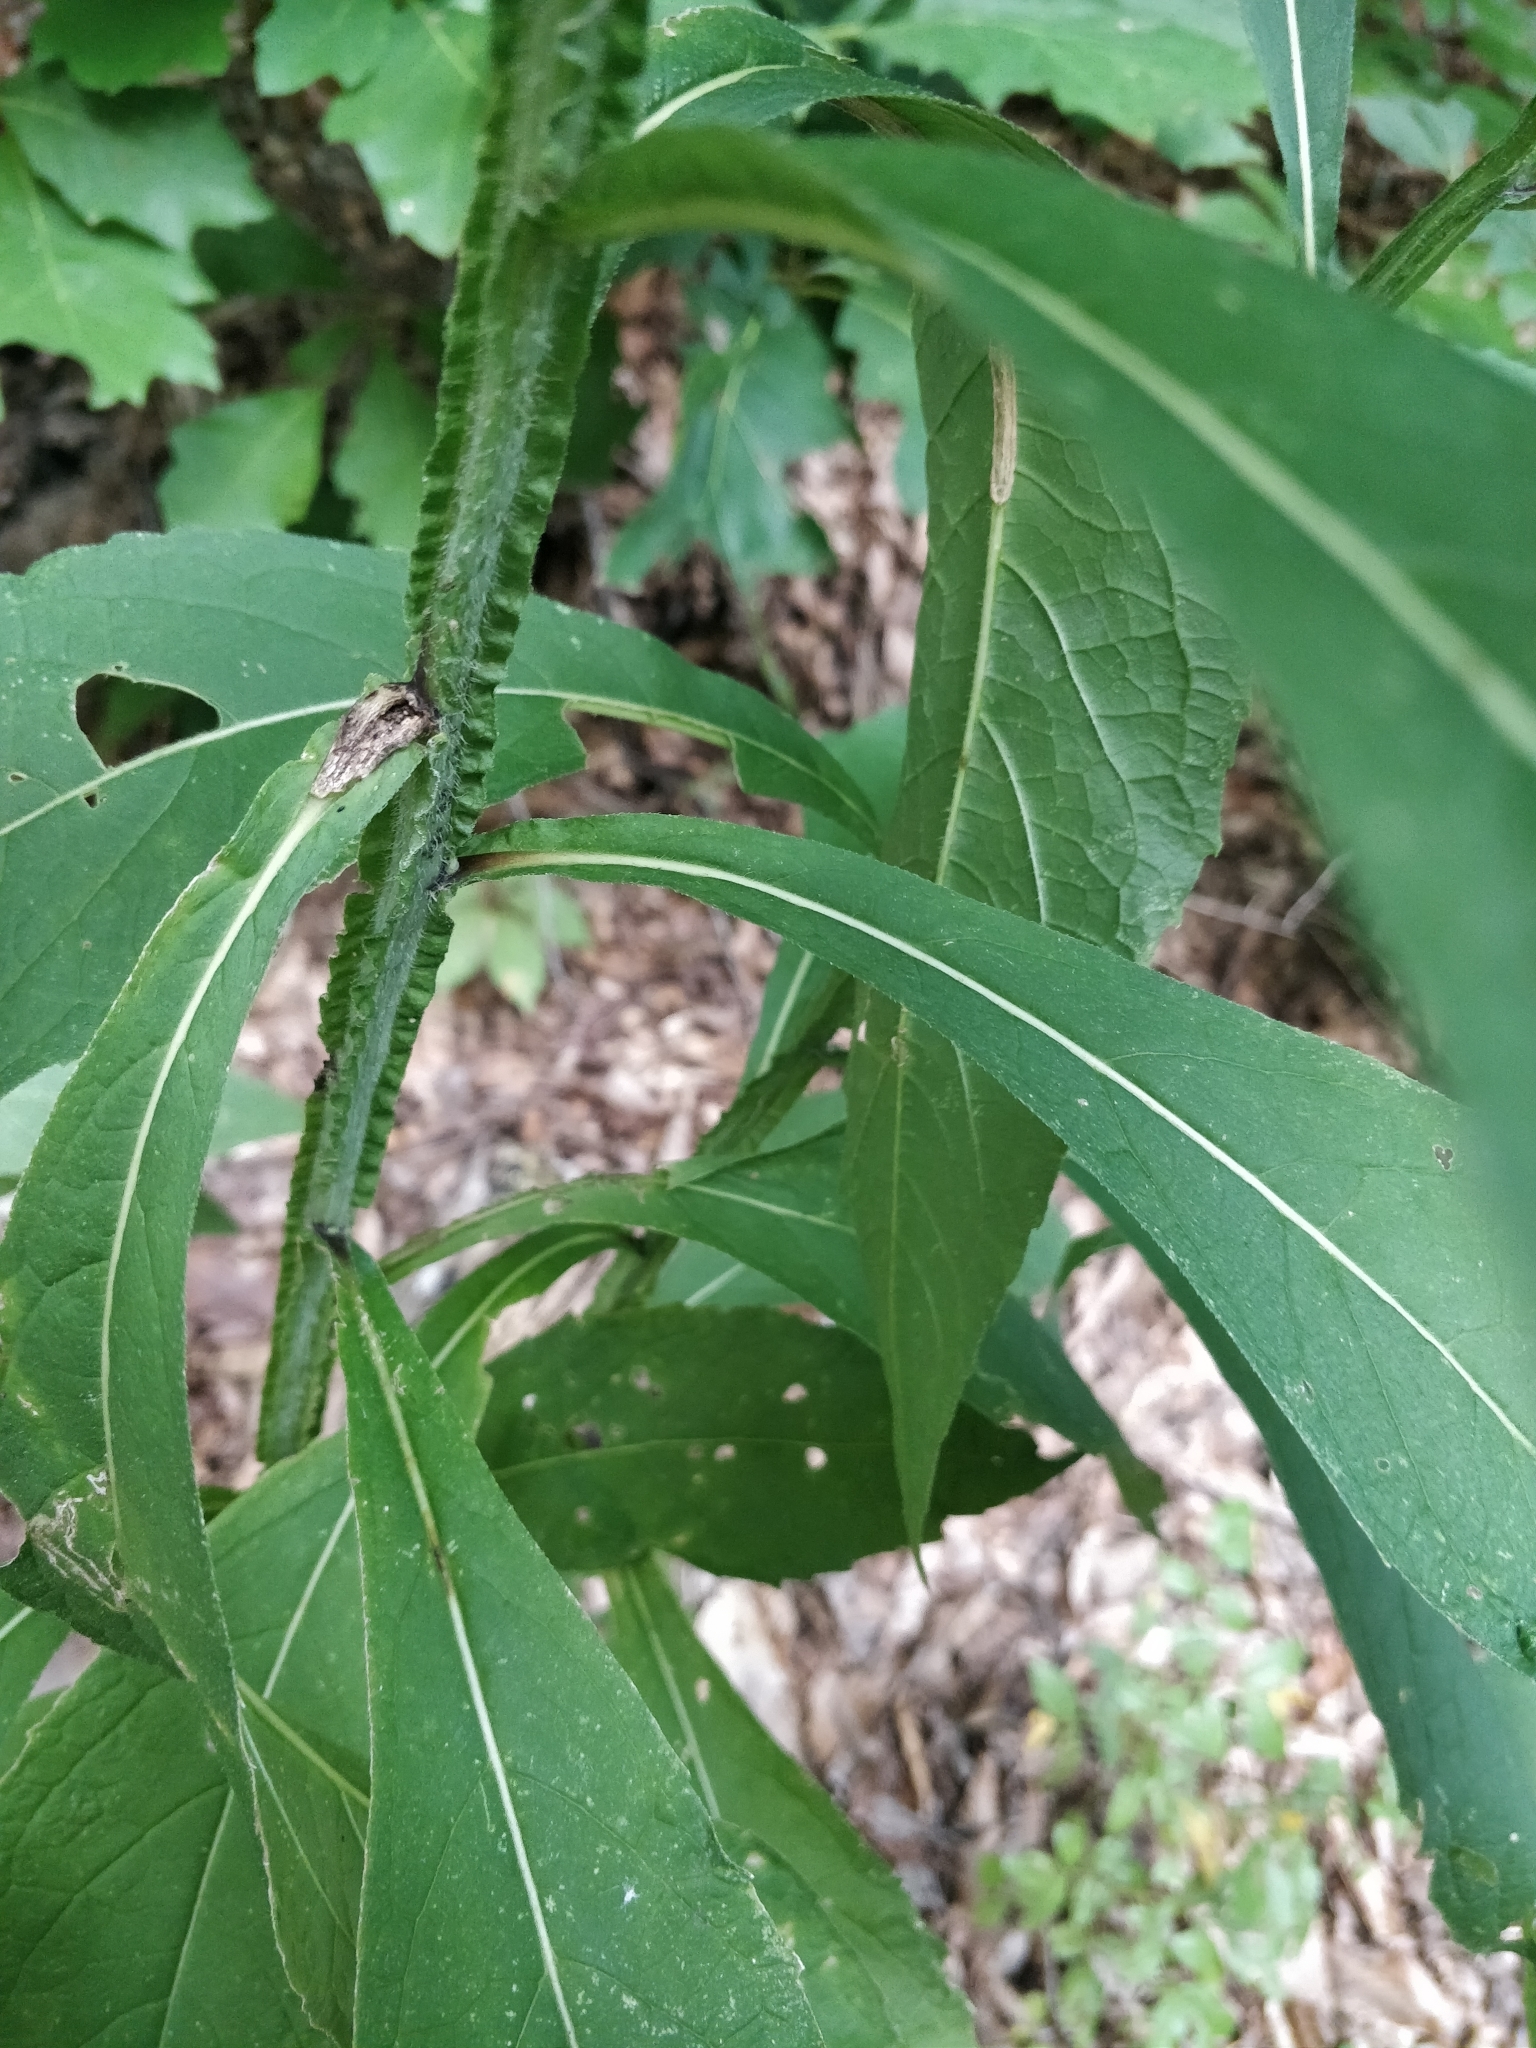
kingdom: Plantae
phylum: Tracheophyta
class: Magnoliopsida
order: Asterales
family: Asteraceae
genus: Verbesina
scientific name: Verbesina alternifolia
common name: Wingstem
